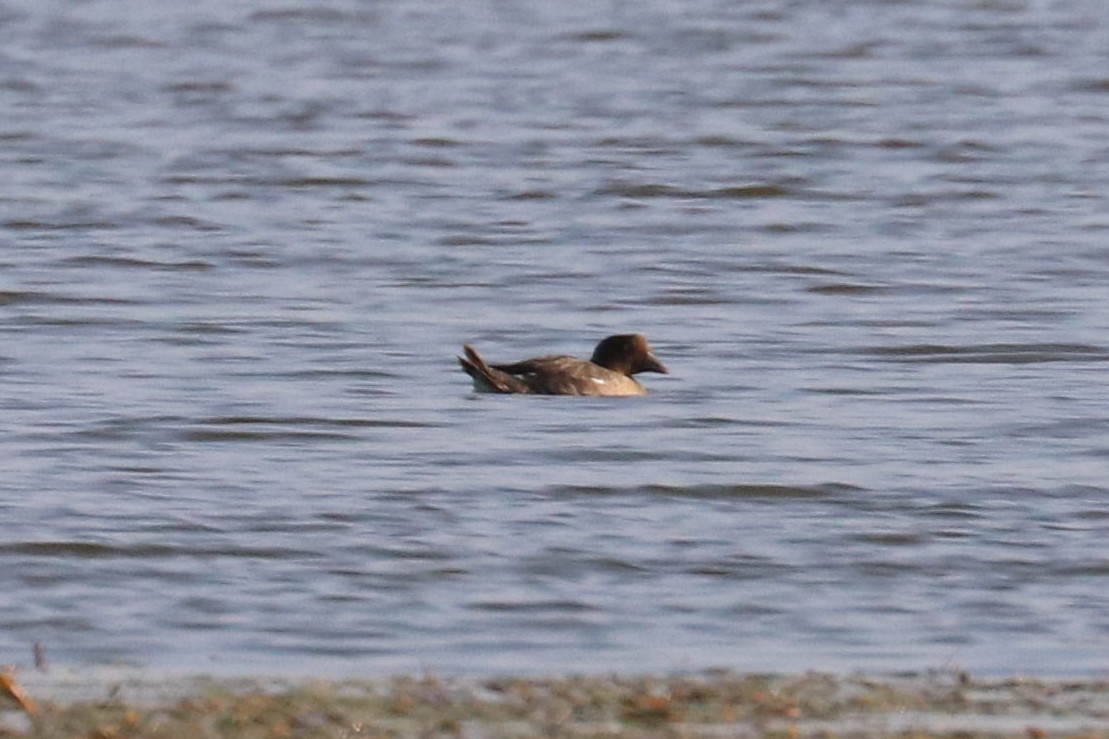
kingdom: Animalia
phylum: Chordata
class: Aves
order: Anseriformes
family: Anatidae
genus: Bucephala
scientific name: Bucephala clangula
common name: Common goldeneye
